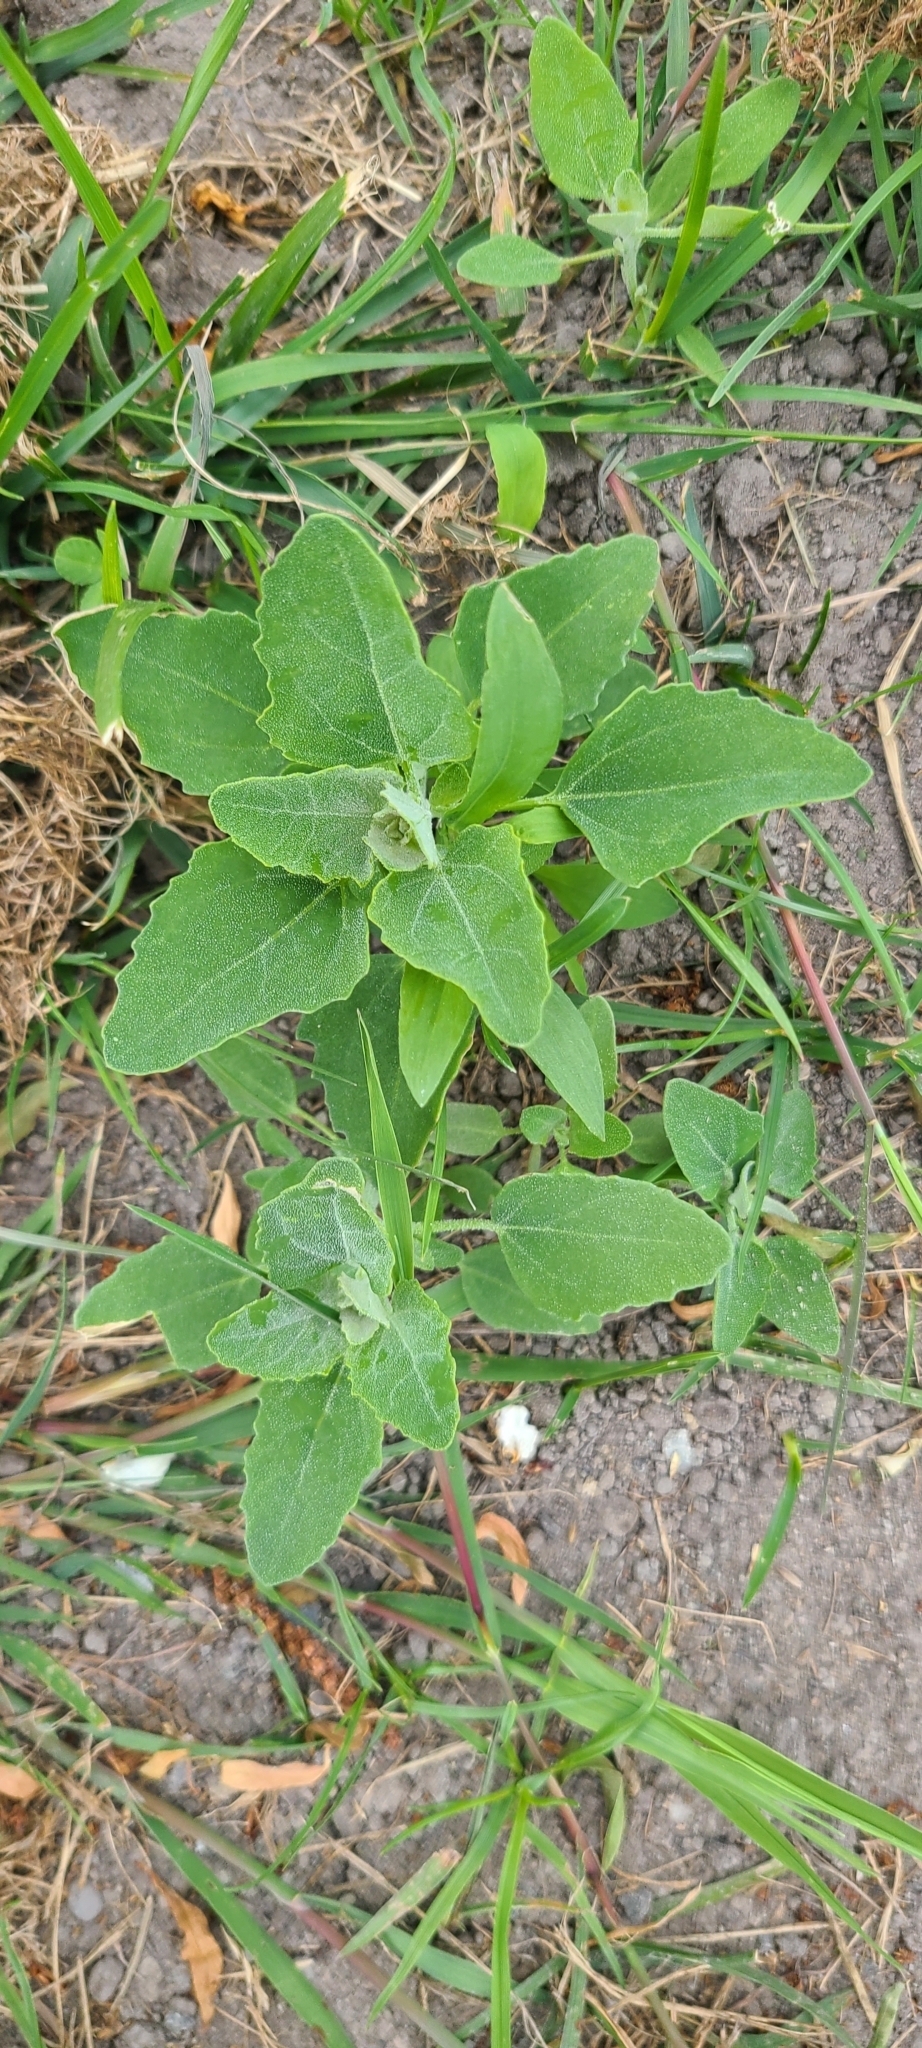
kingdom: Plantae
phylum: Tracheophyta
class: Magnoliopsida
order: Caryophyllales
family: Amaranthaceae
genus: Chenopodium
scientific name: Chenopodium album
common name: Fat-hen
